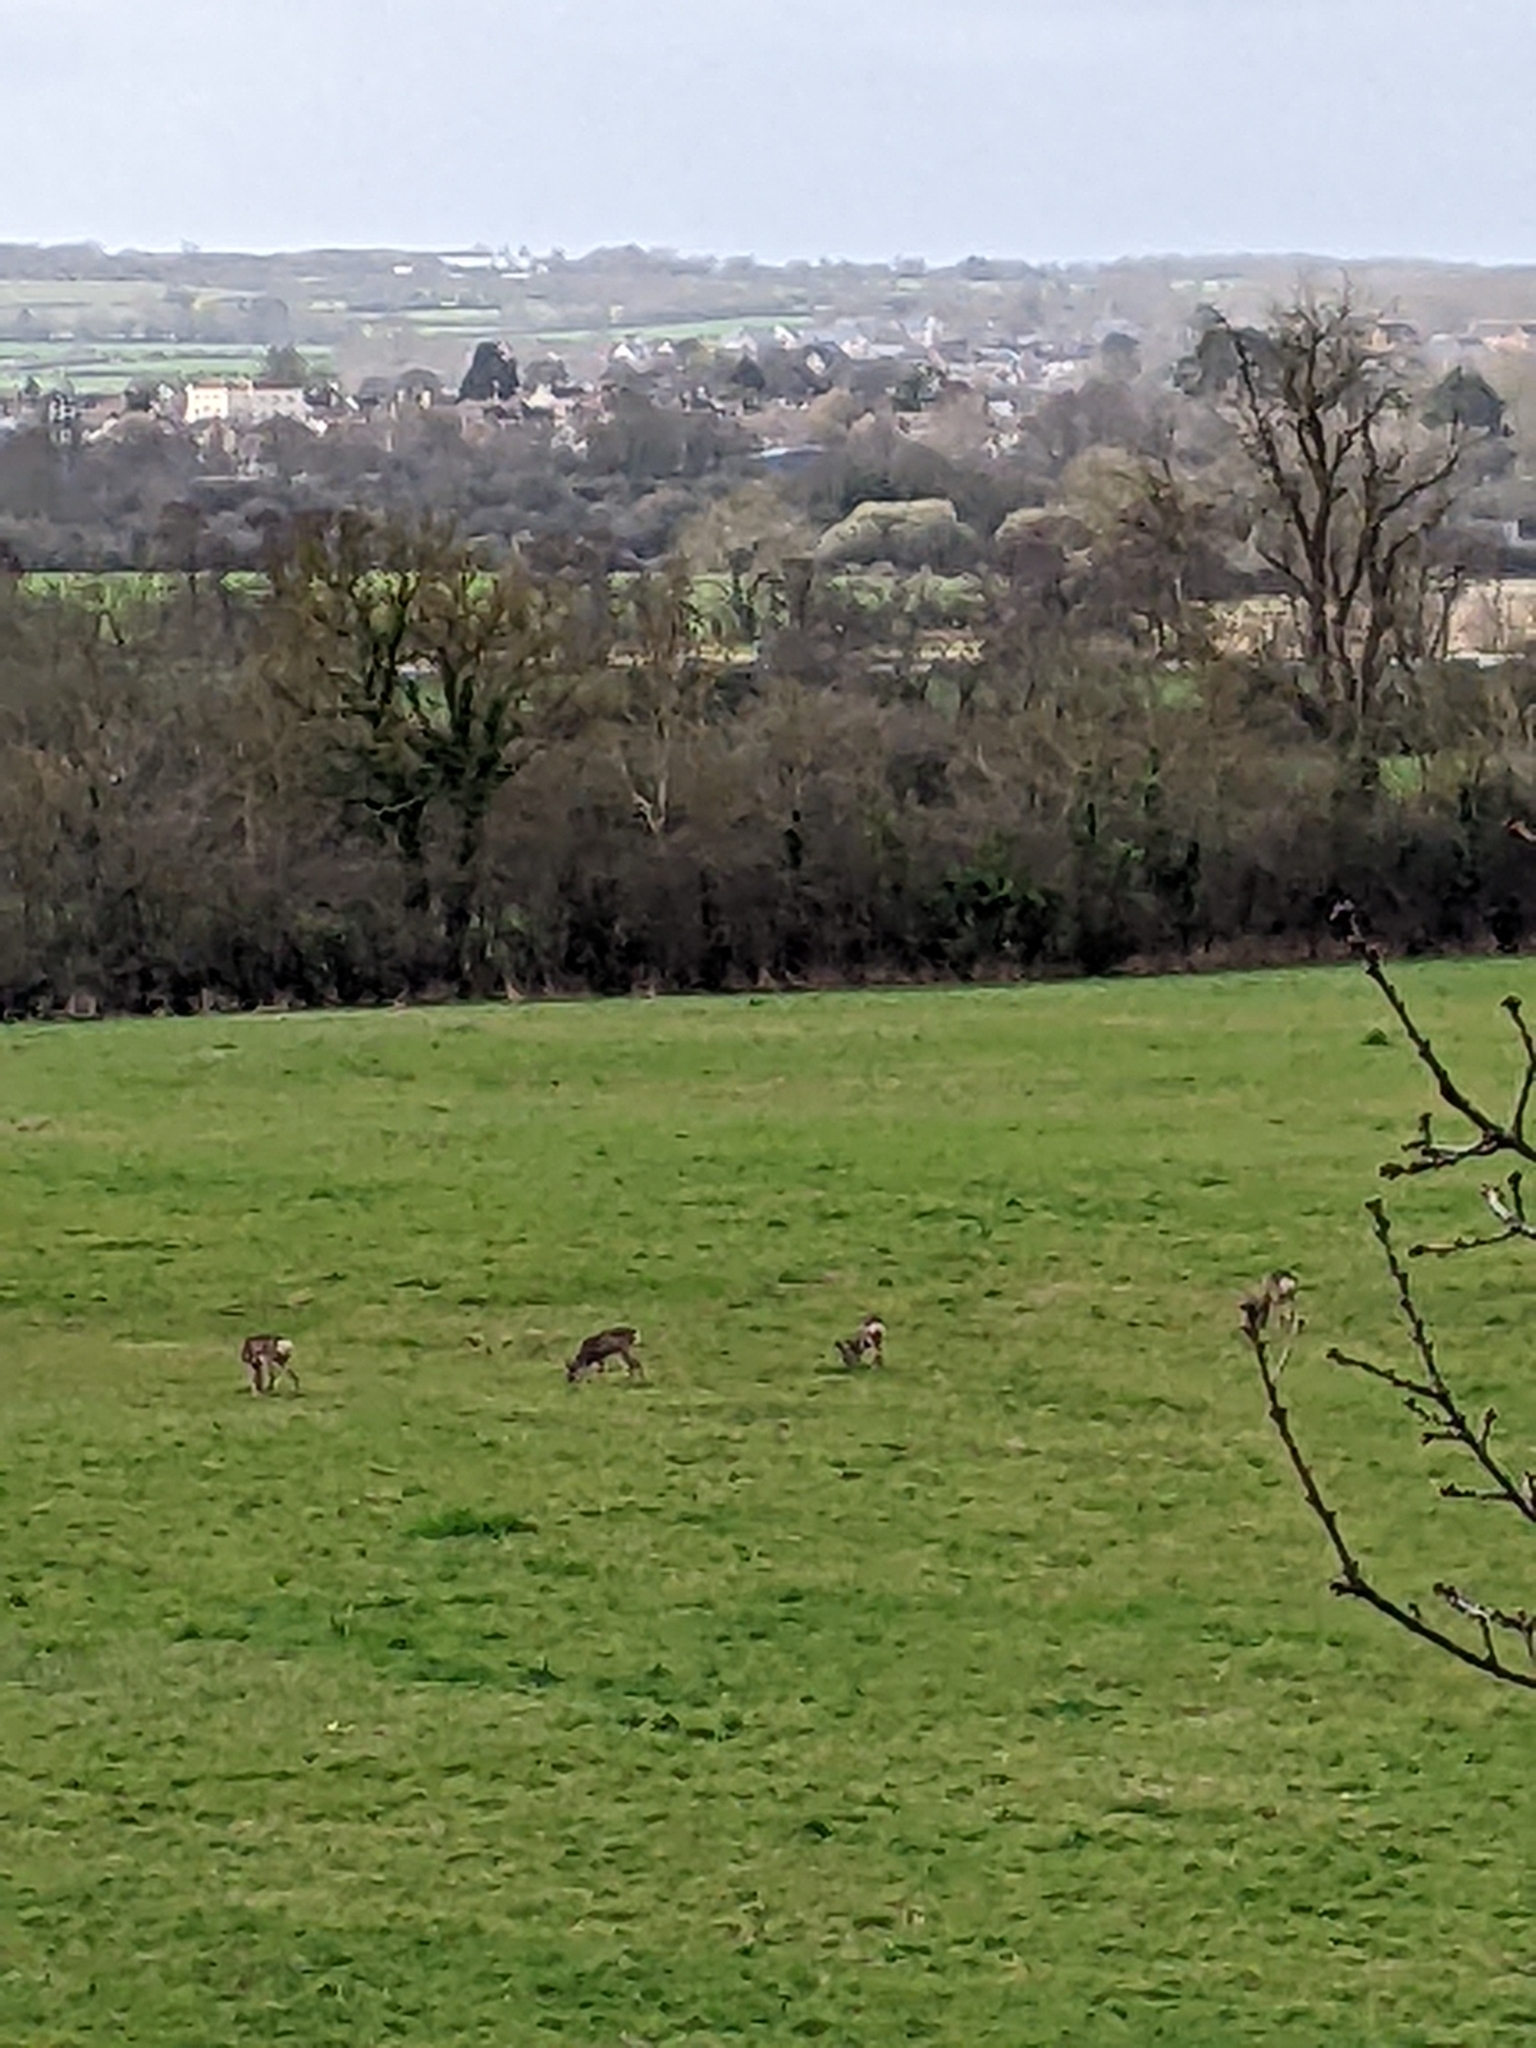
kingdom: Animalia
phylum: Chordata
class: Mammalia
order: Artiodactyla
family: Cervidae
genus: Capreolus
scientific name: Capreolus capreolus
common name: Western roe deer
